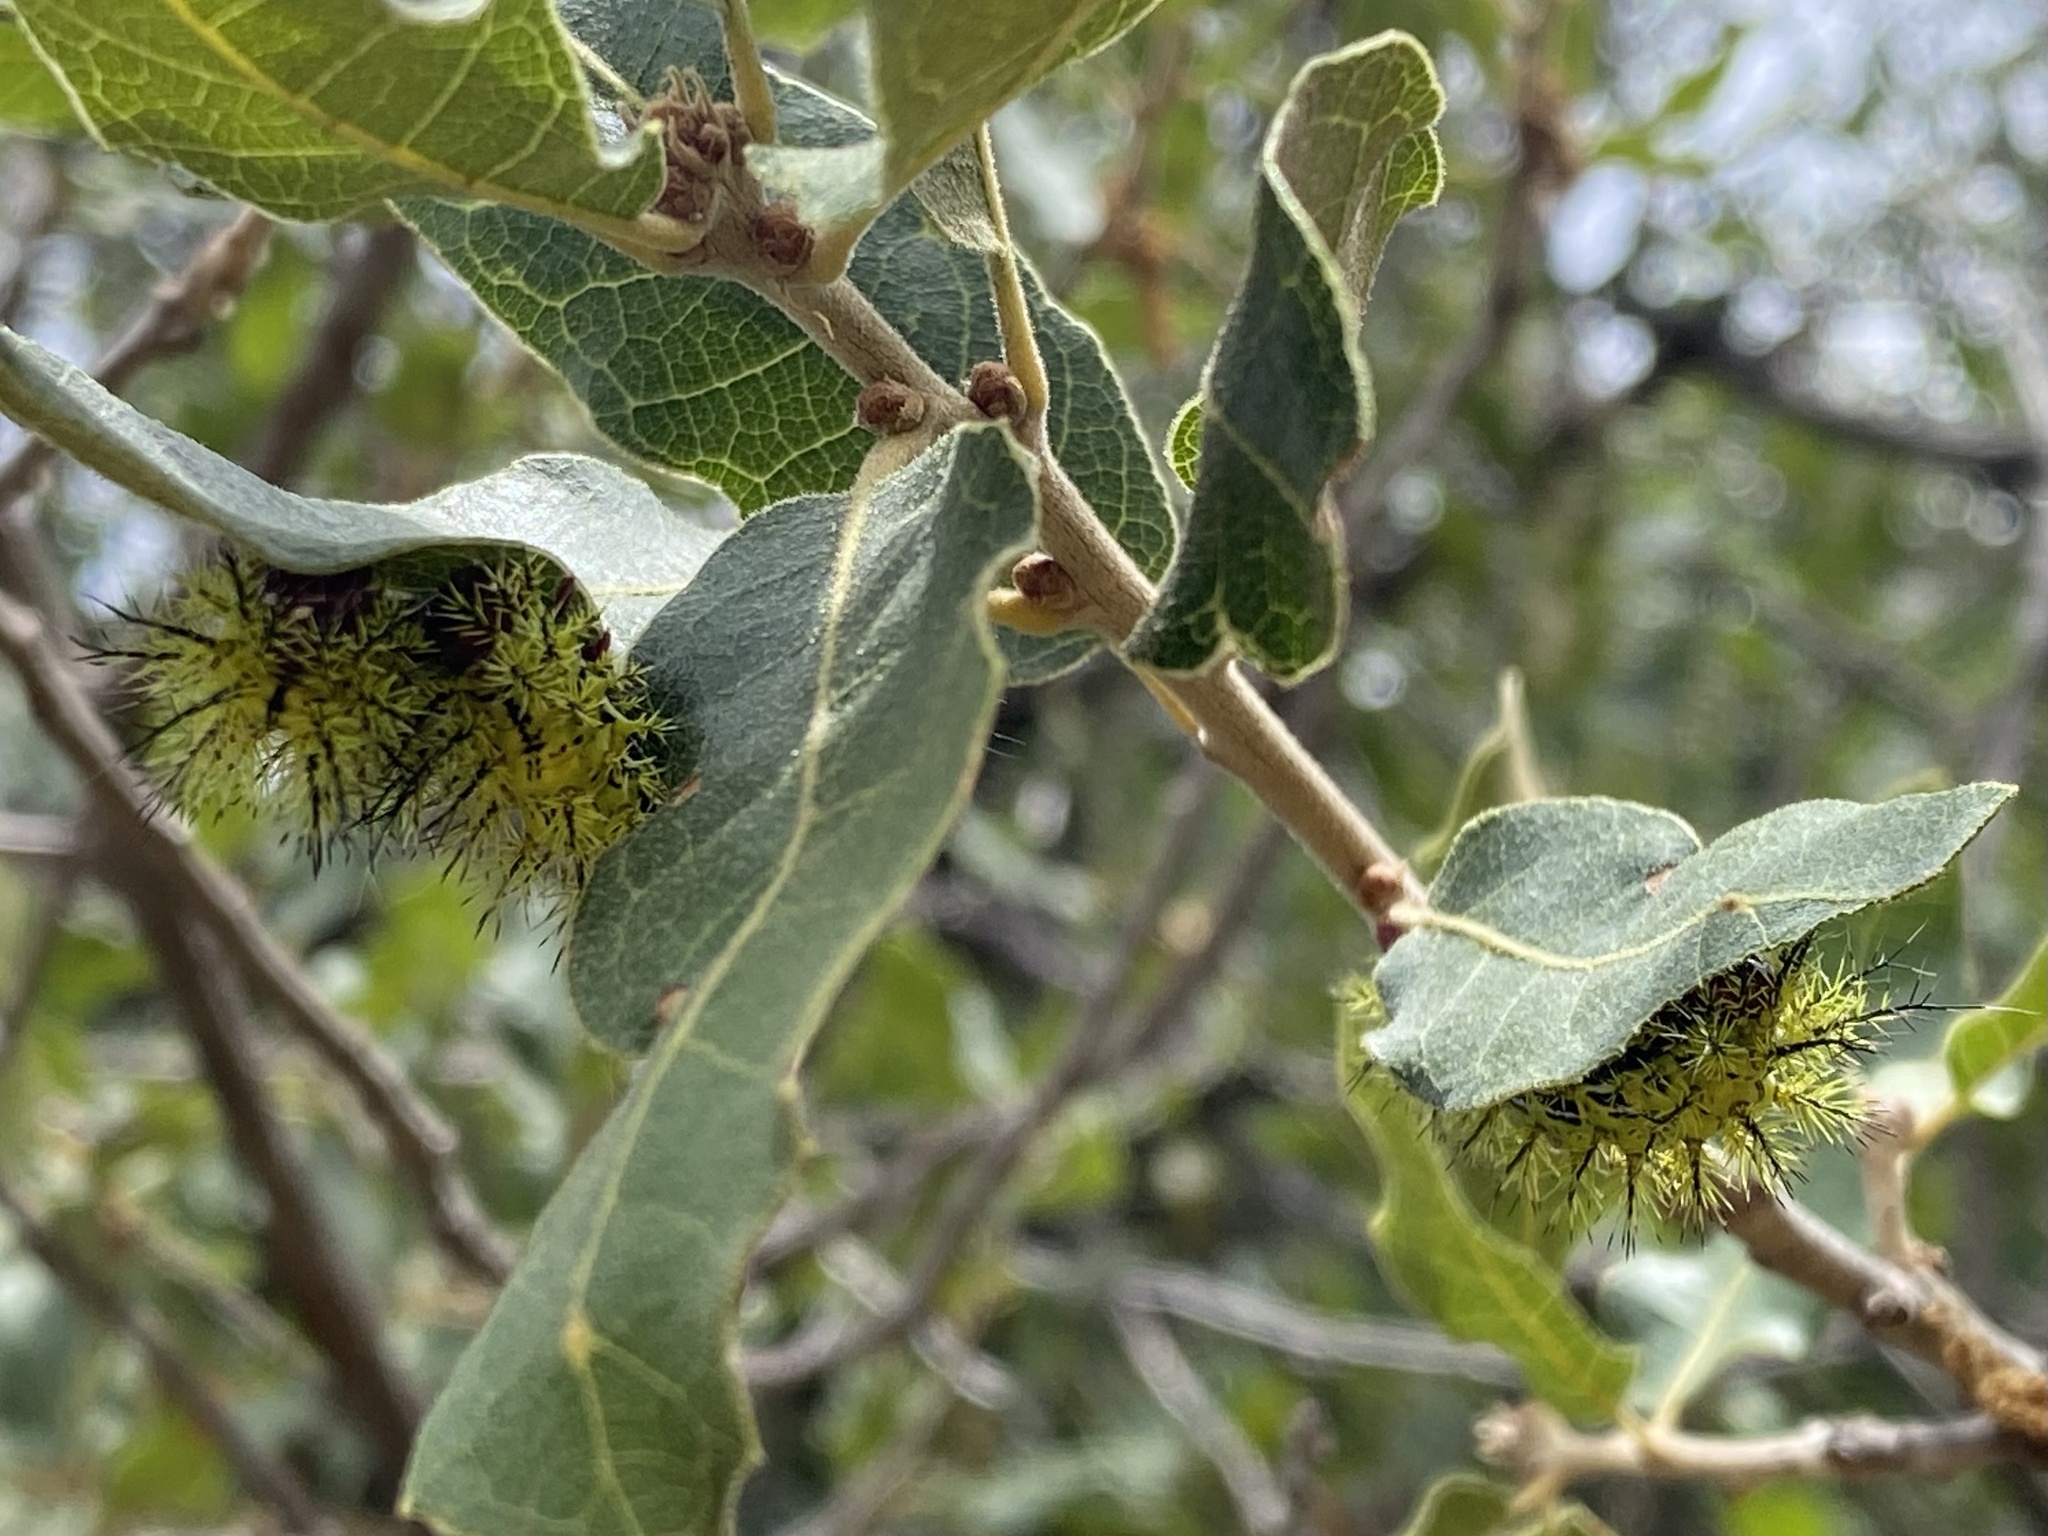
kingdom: Animalia
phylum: Arthropoda
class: Insecta
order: Lepidoptera
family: Saturniidae
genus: Automeris
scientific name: Automeris zephyria
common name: Zephyr eyed silkmoth
